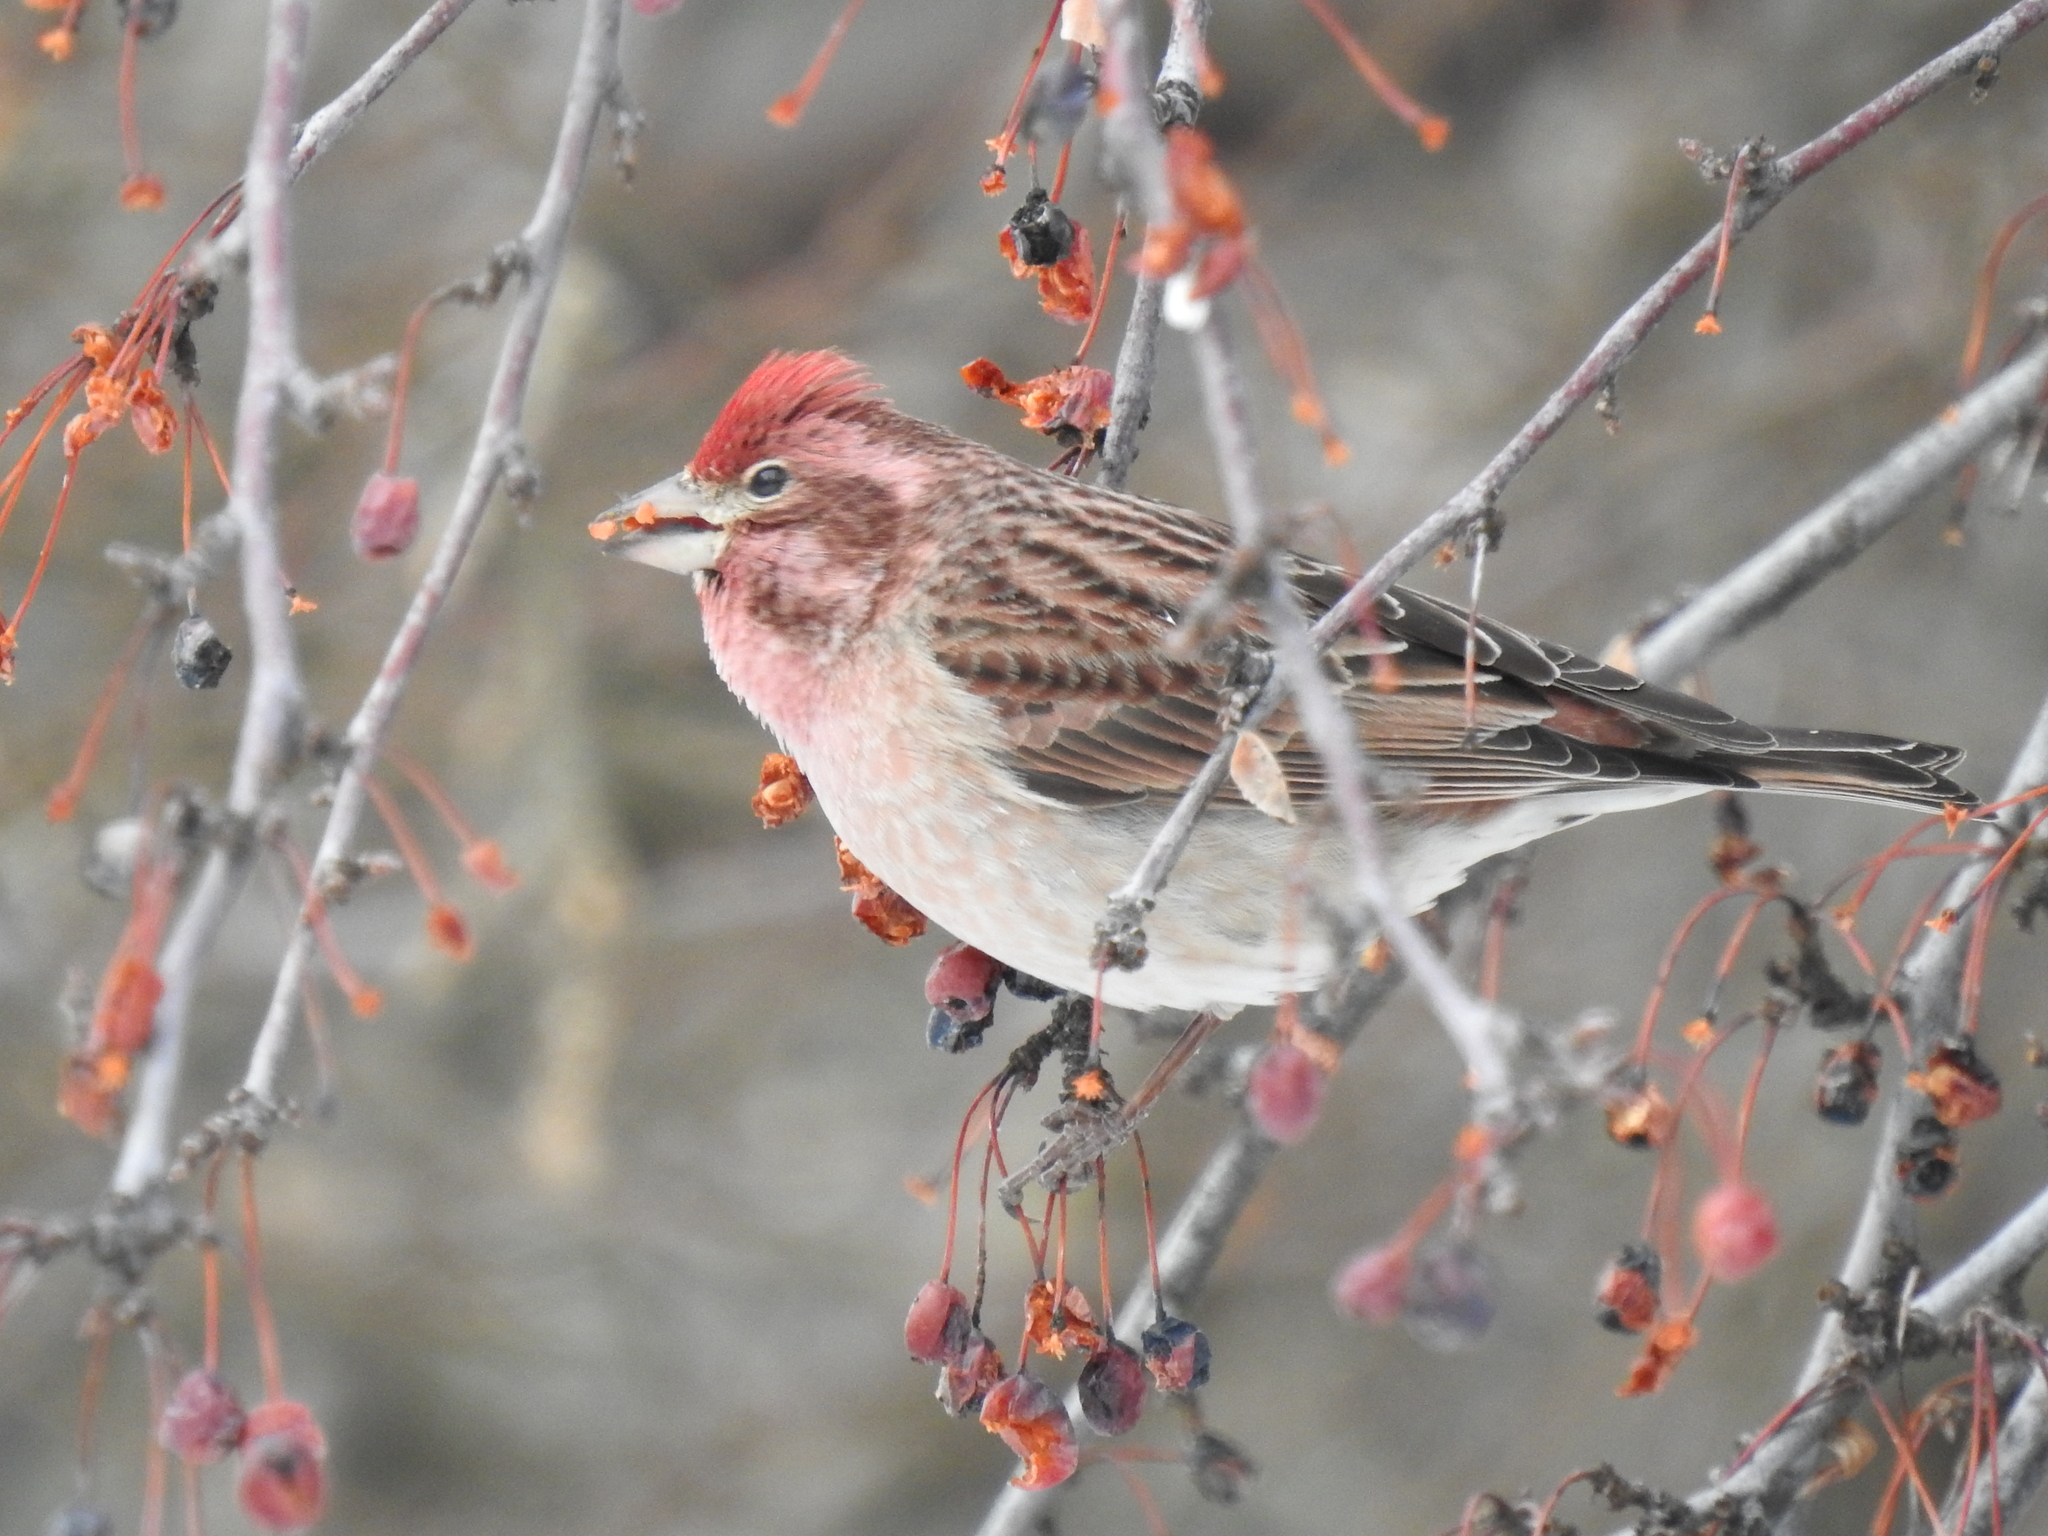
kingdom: Animalia
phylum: Chordata
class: Aves
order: Passeriformes
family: Fringillidae
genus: Haemorhous
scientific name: Haemorhous cassinii
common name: Cassin's finch
